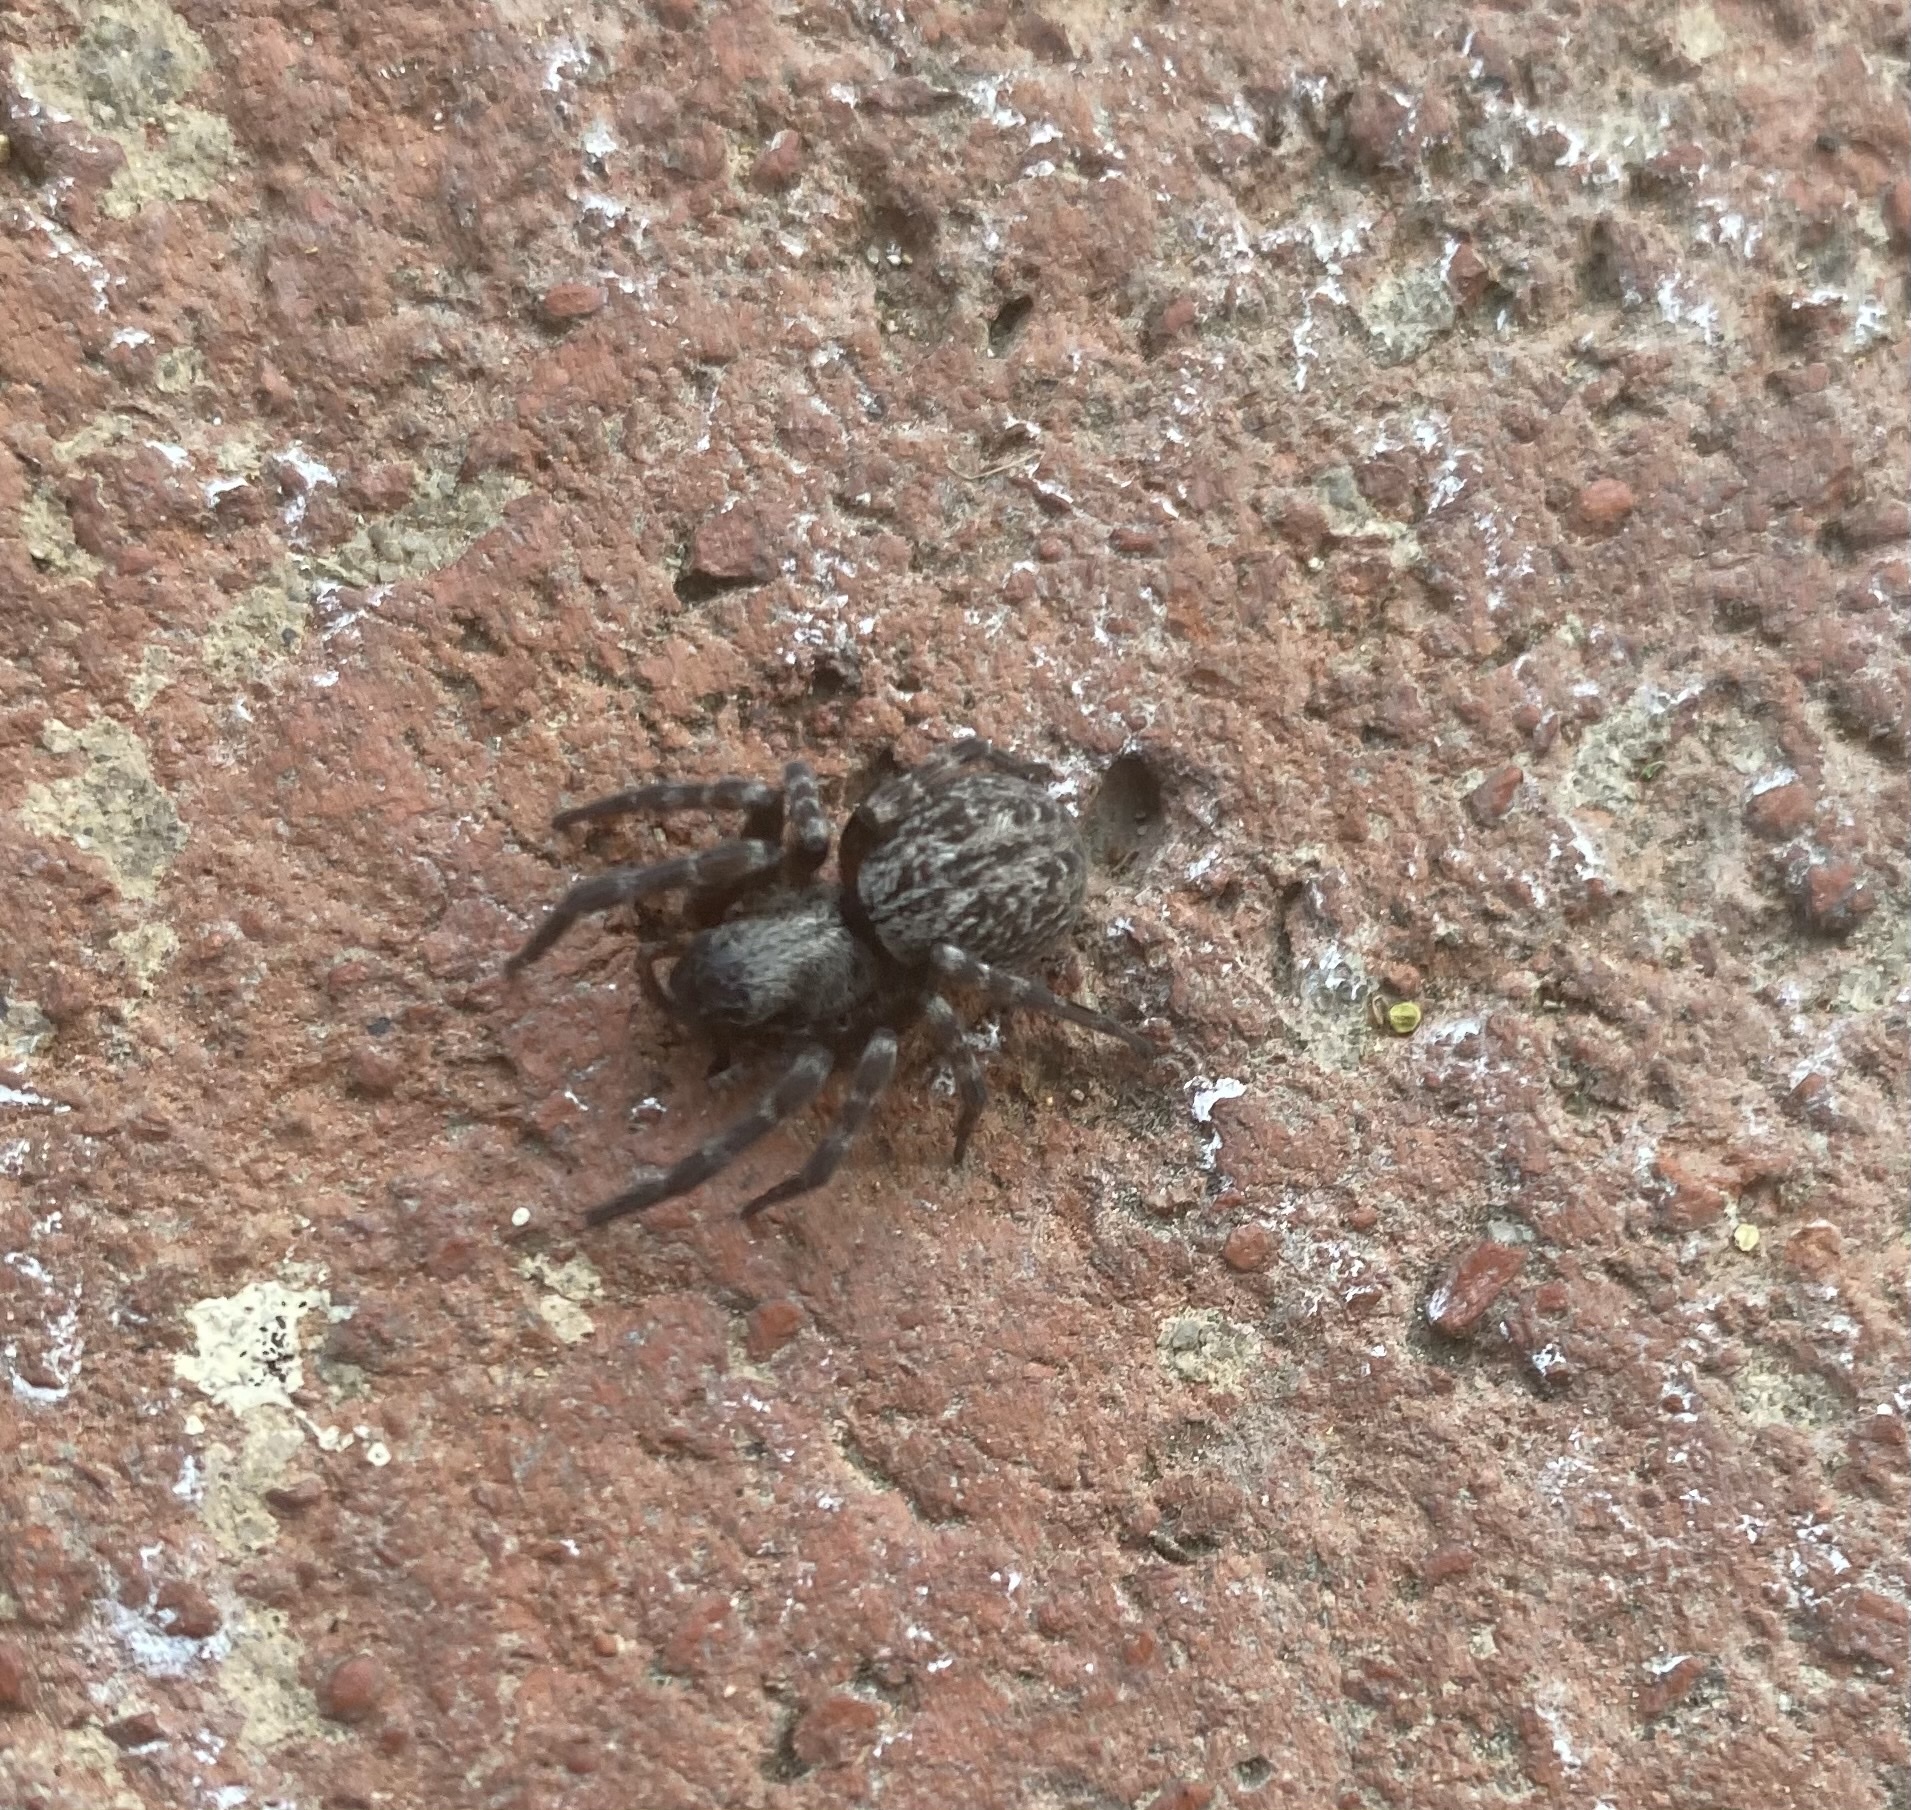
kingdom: Animalia
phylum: Arthropoda
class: Arachnida
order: Araneae
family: Desidae
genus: Badumna
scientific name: Badumna longinqua
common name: Gray house spider
